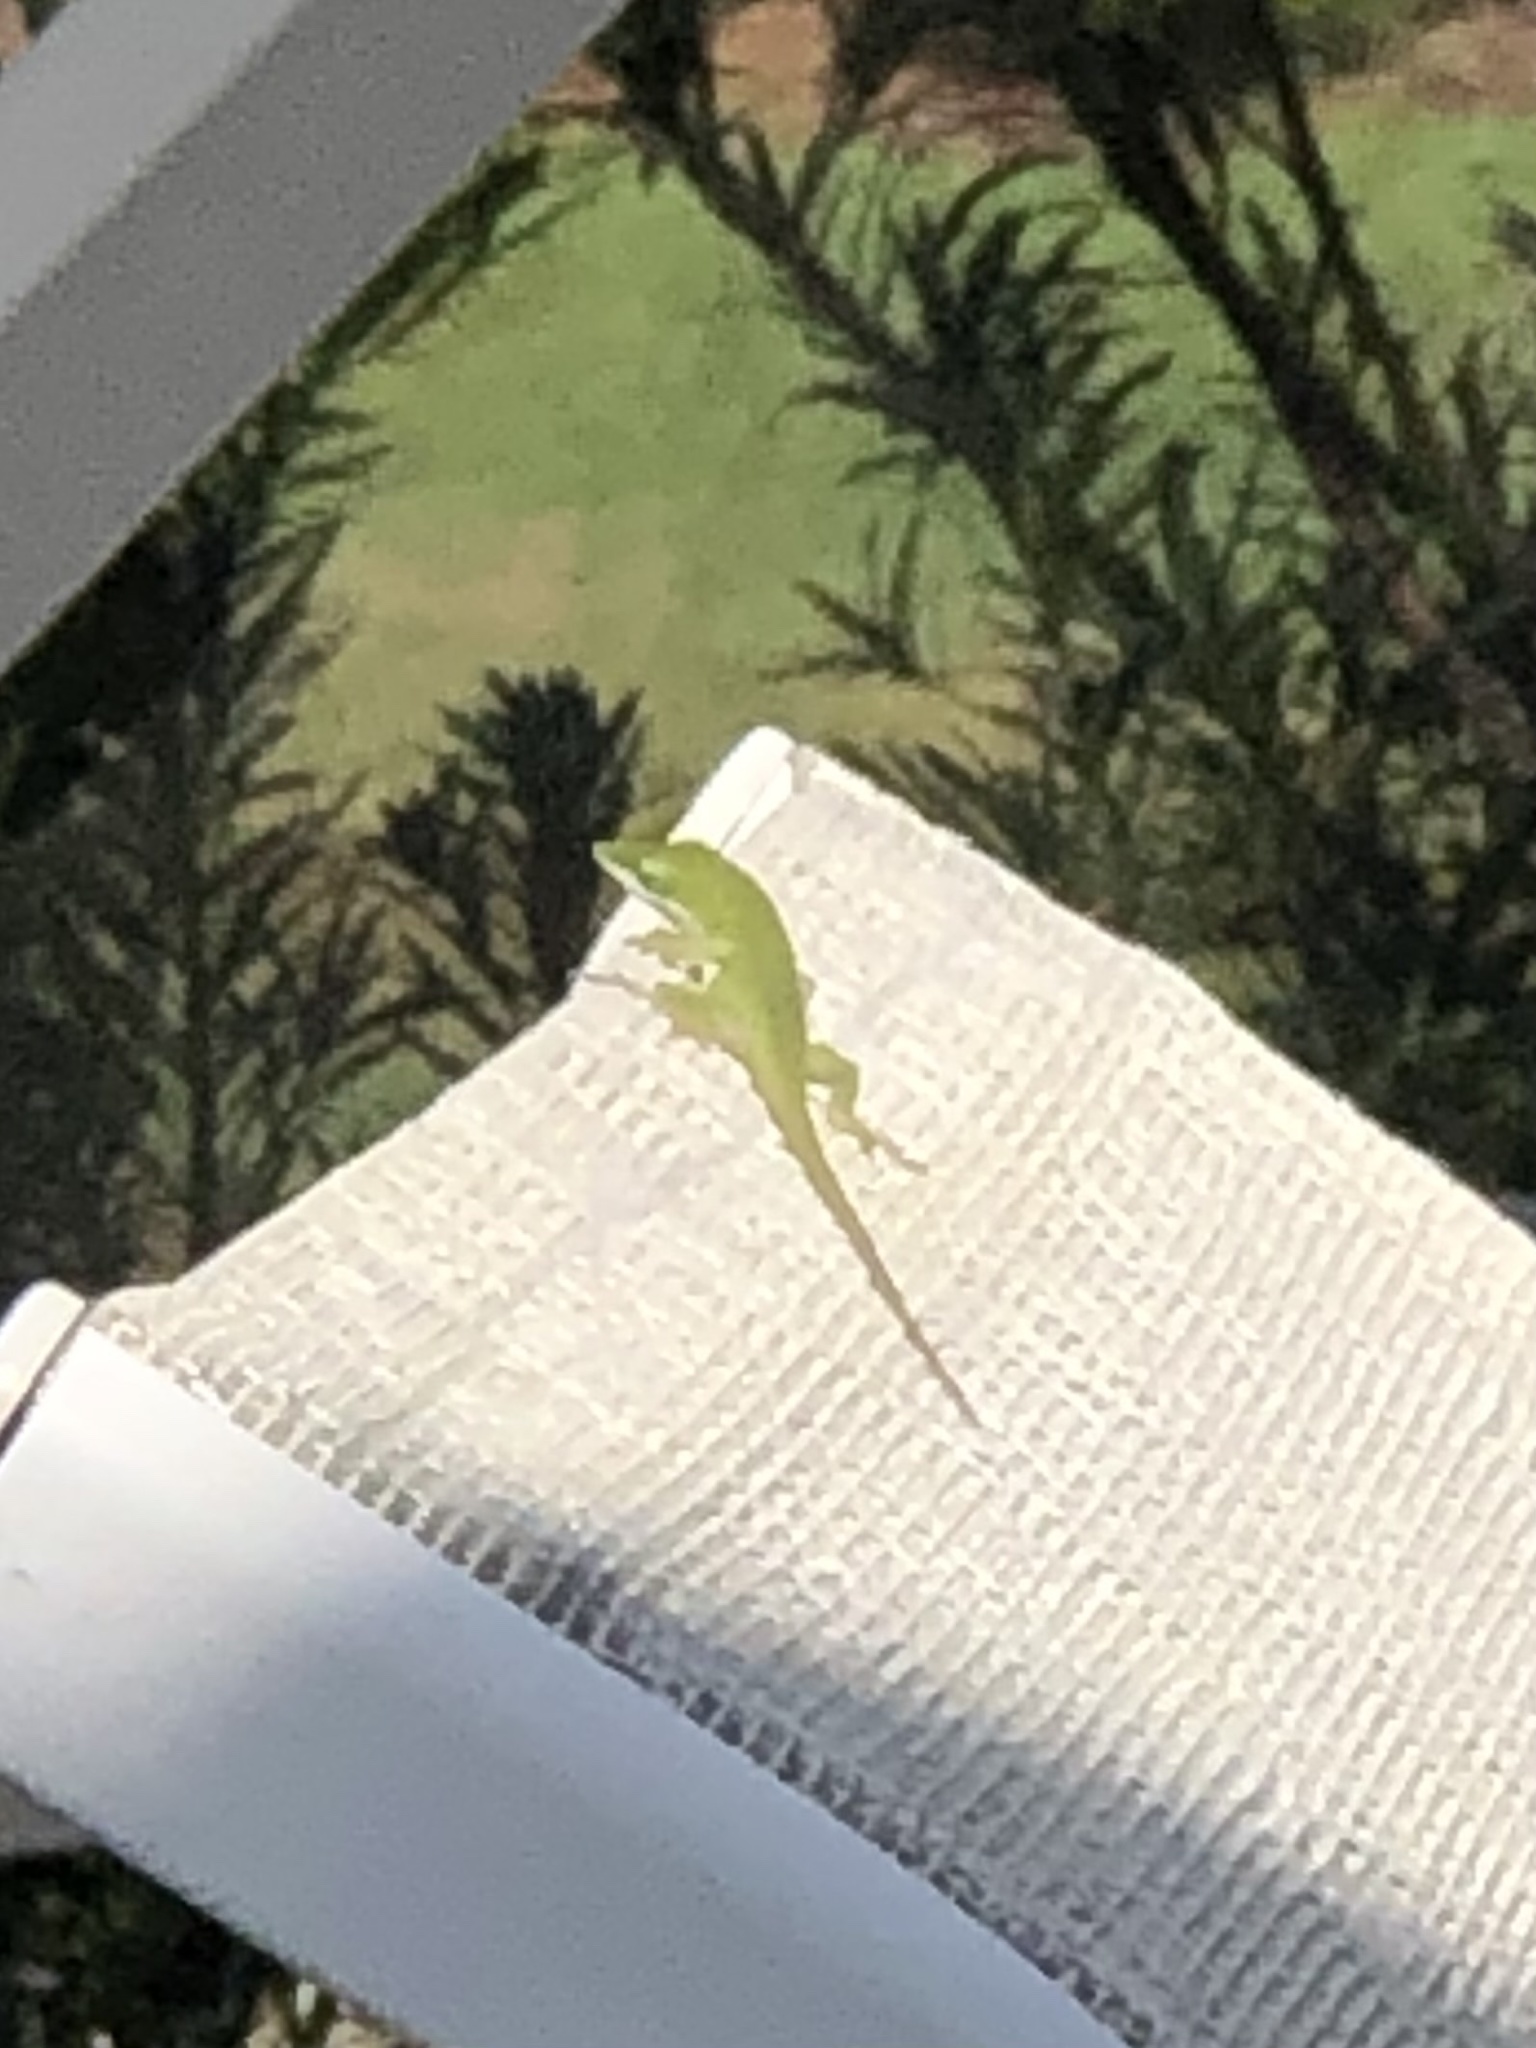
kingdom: Animalia
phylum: Chordata
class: Squamata
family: Dactyloidae
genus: Anolis
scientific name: Anolis carolinensis
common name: Green anole
